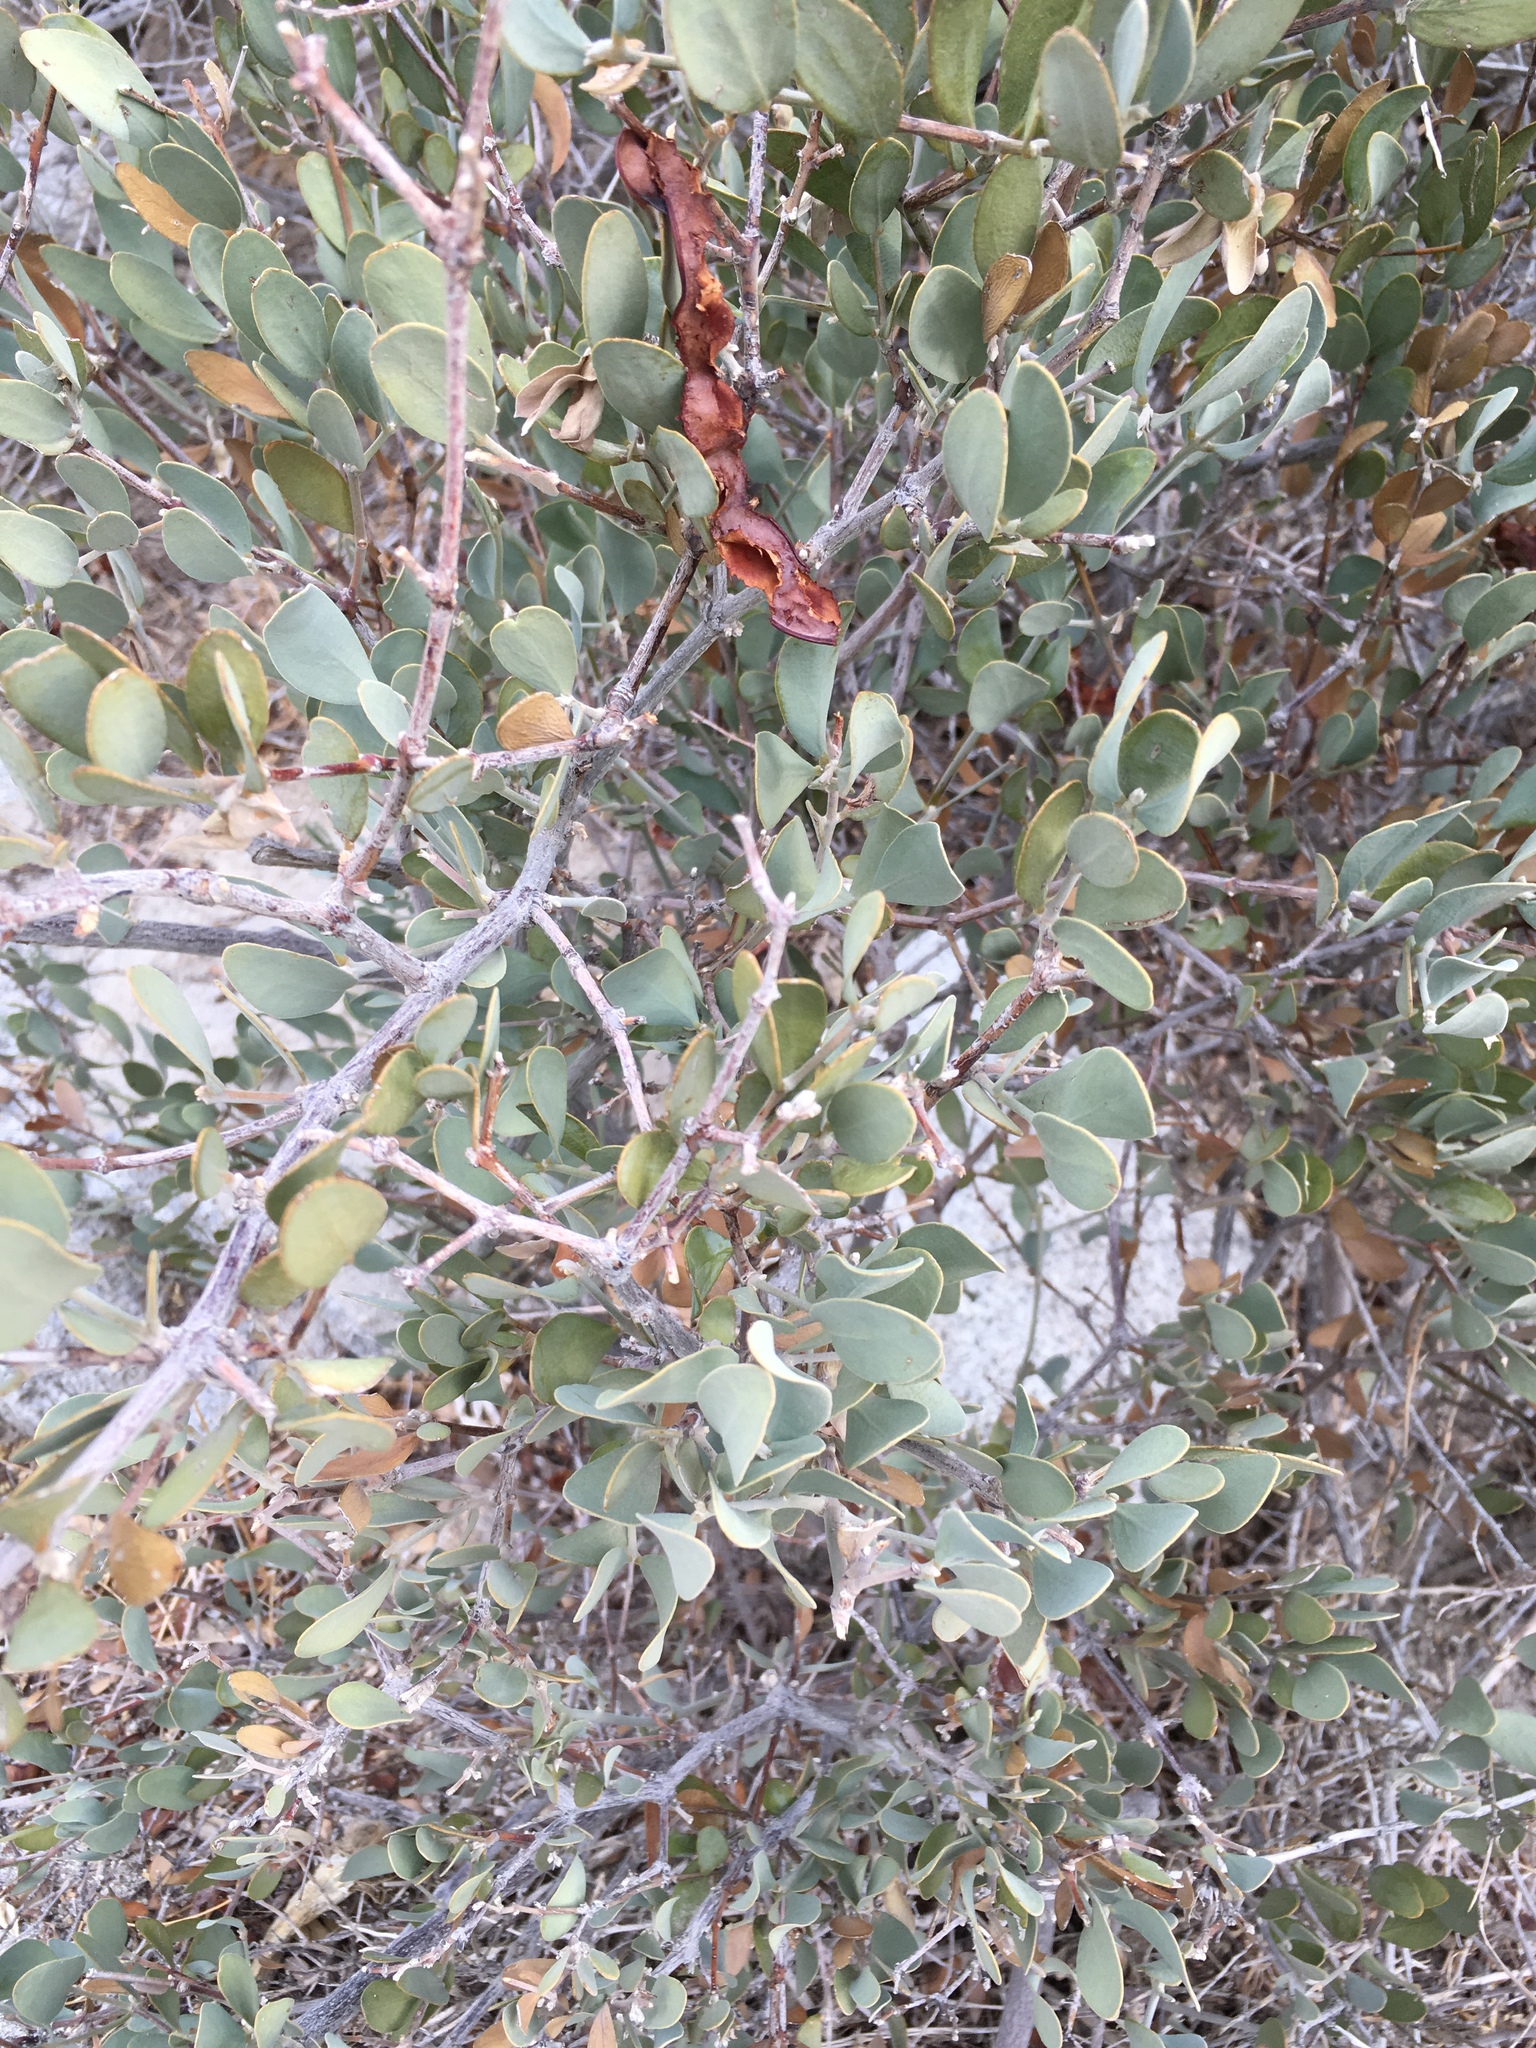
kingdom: Plantae
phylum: Tracheophyta
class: Magnoliopsida
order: Caryophyllales
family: Simmondsiaceae
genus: Simmondsia
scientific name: Simmondsia chinensis
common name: Jojoba
